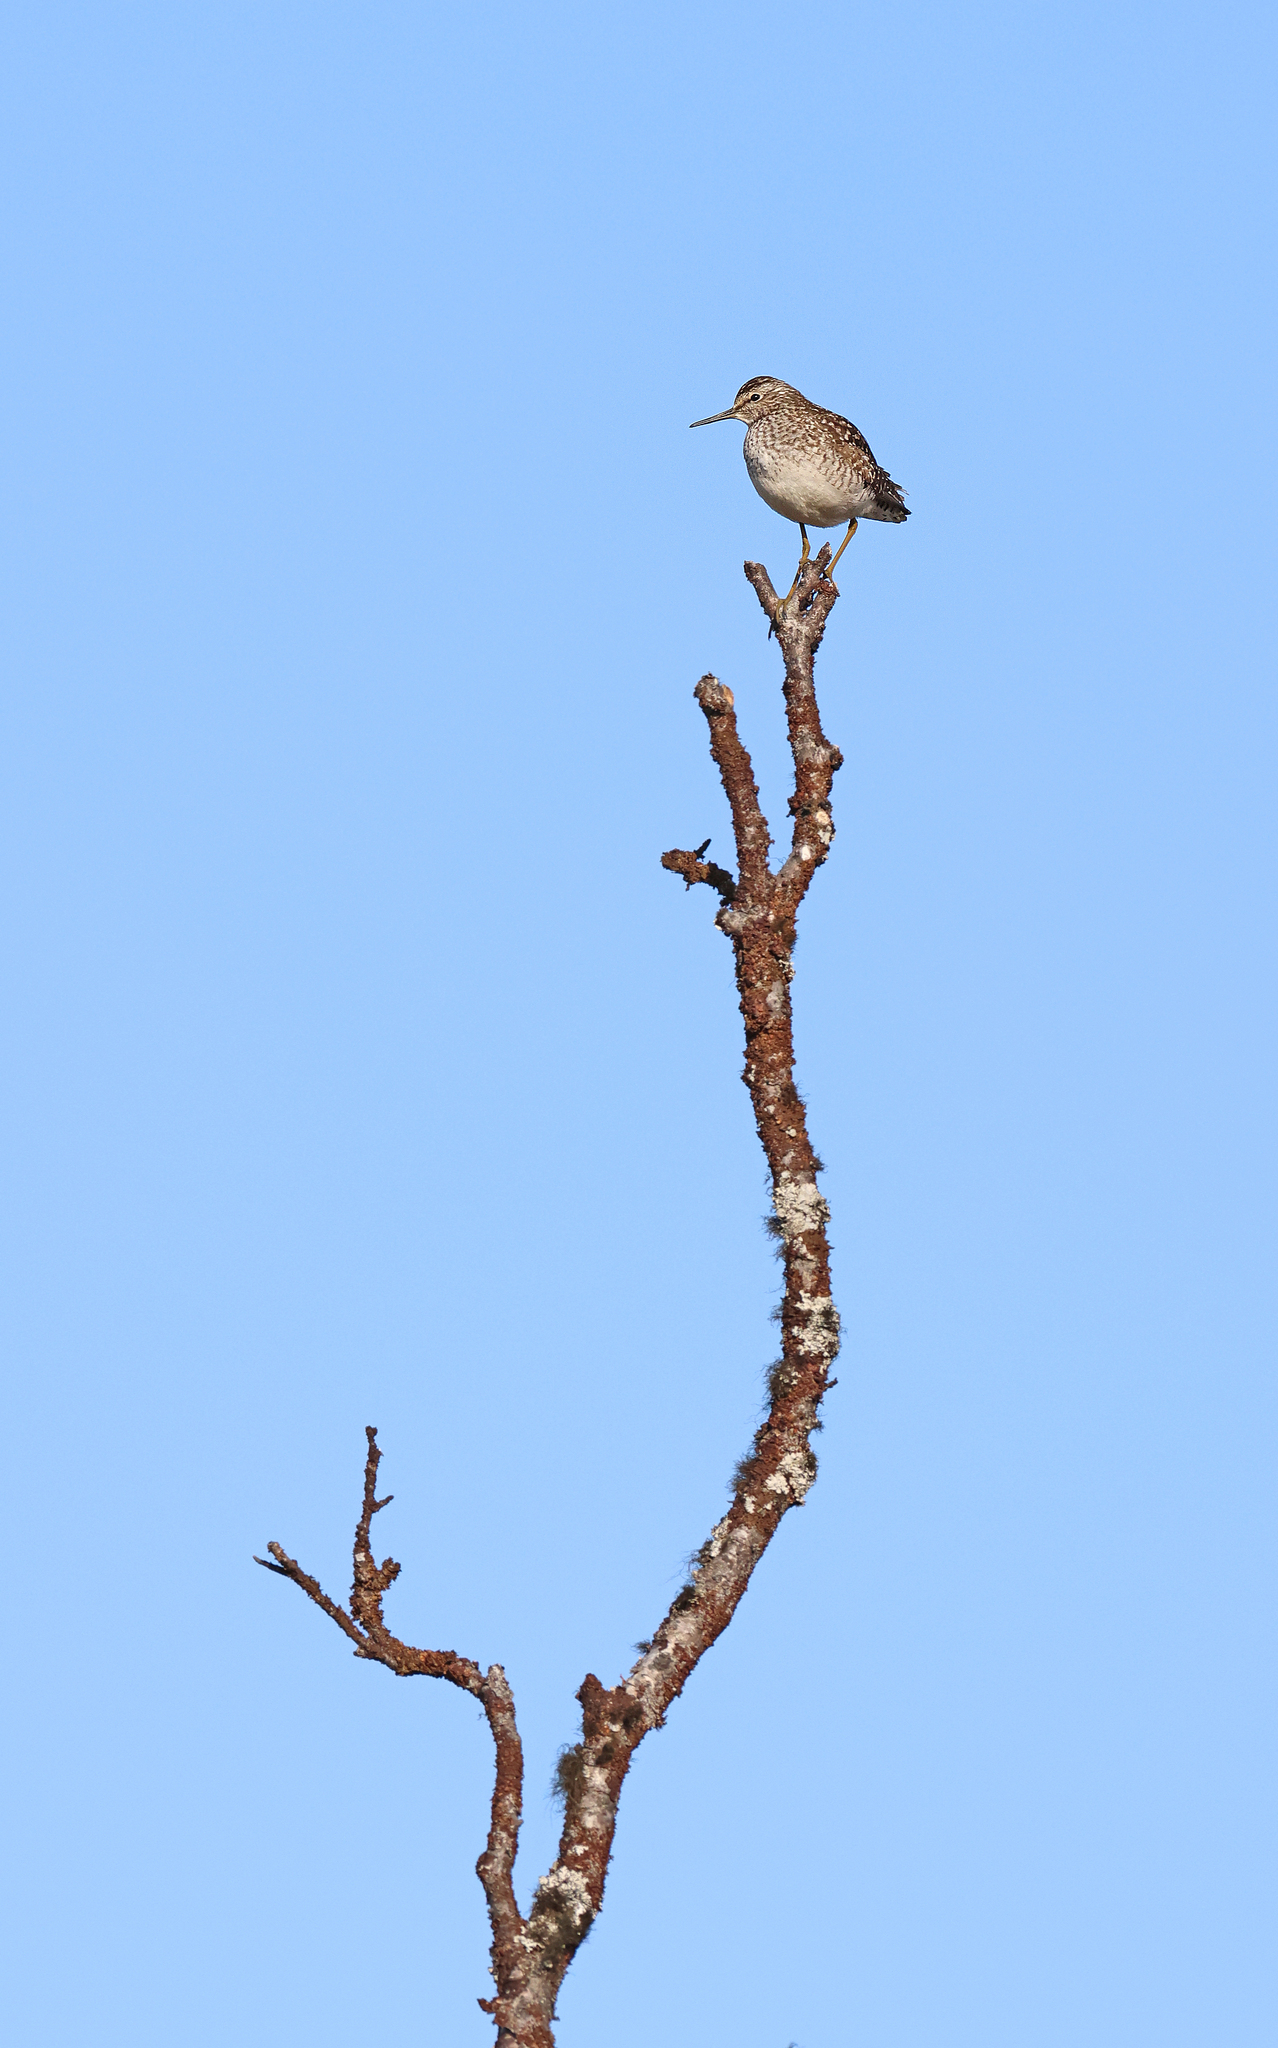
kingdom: Animalia
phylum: Chordata
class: Aves
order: Charadriiformes
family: Scolopacidae
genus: Tringa
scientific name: Tringa glareola
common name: Wood sandpiper
